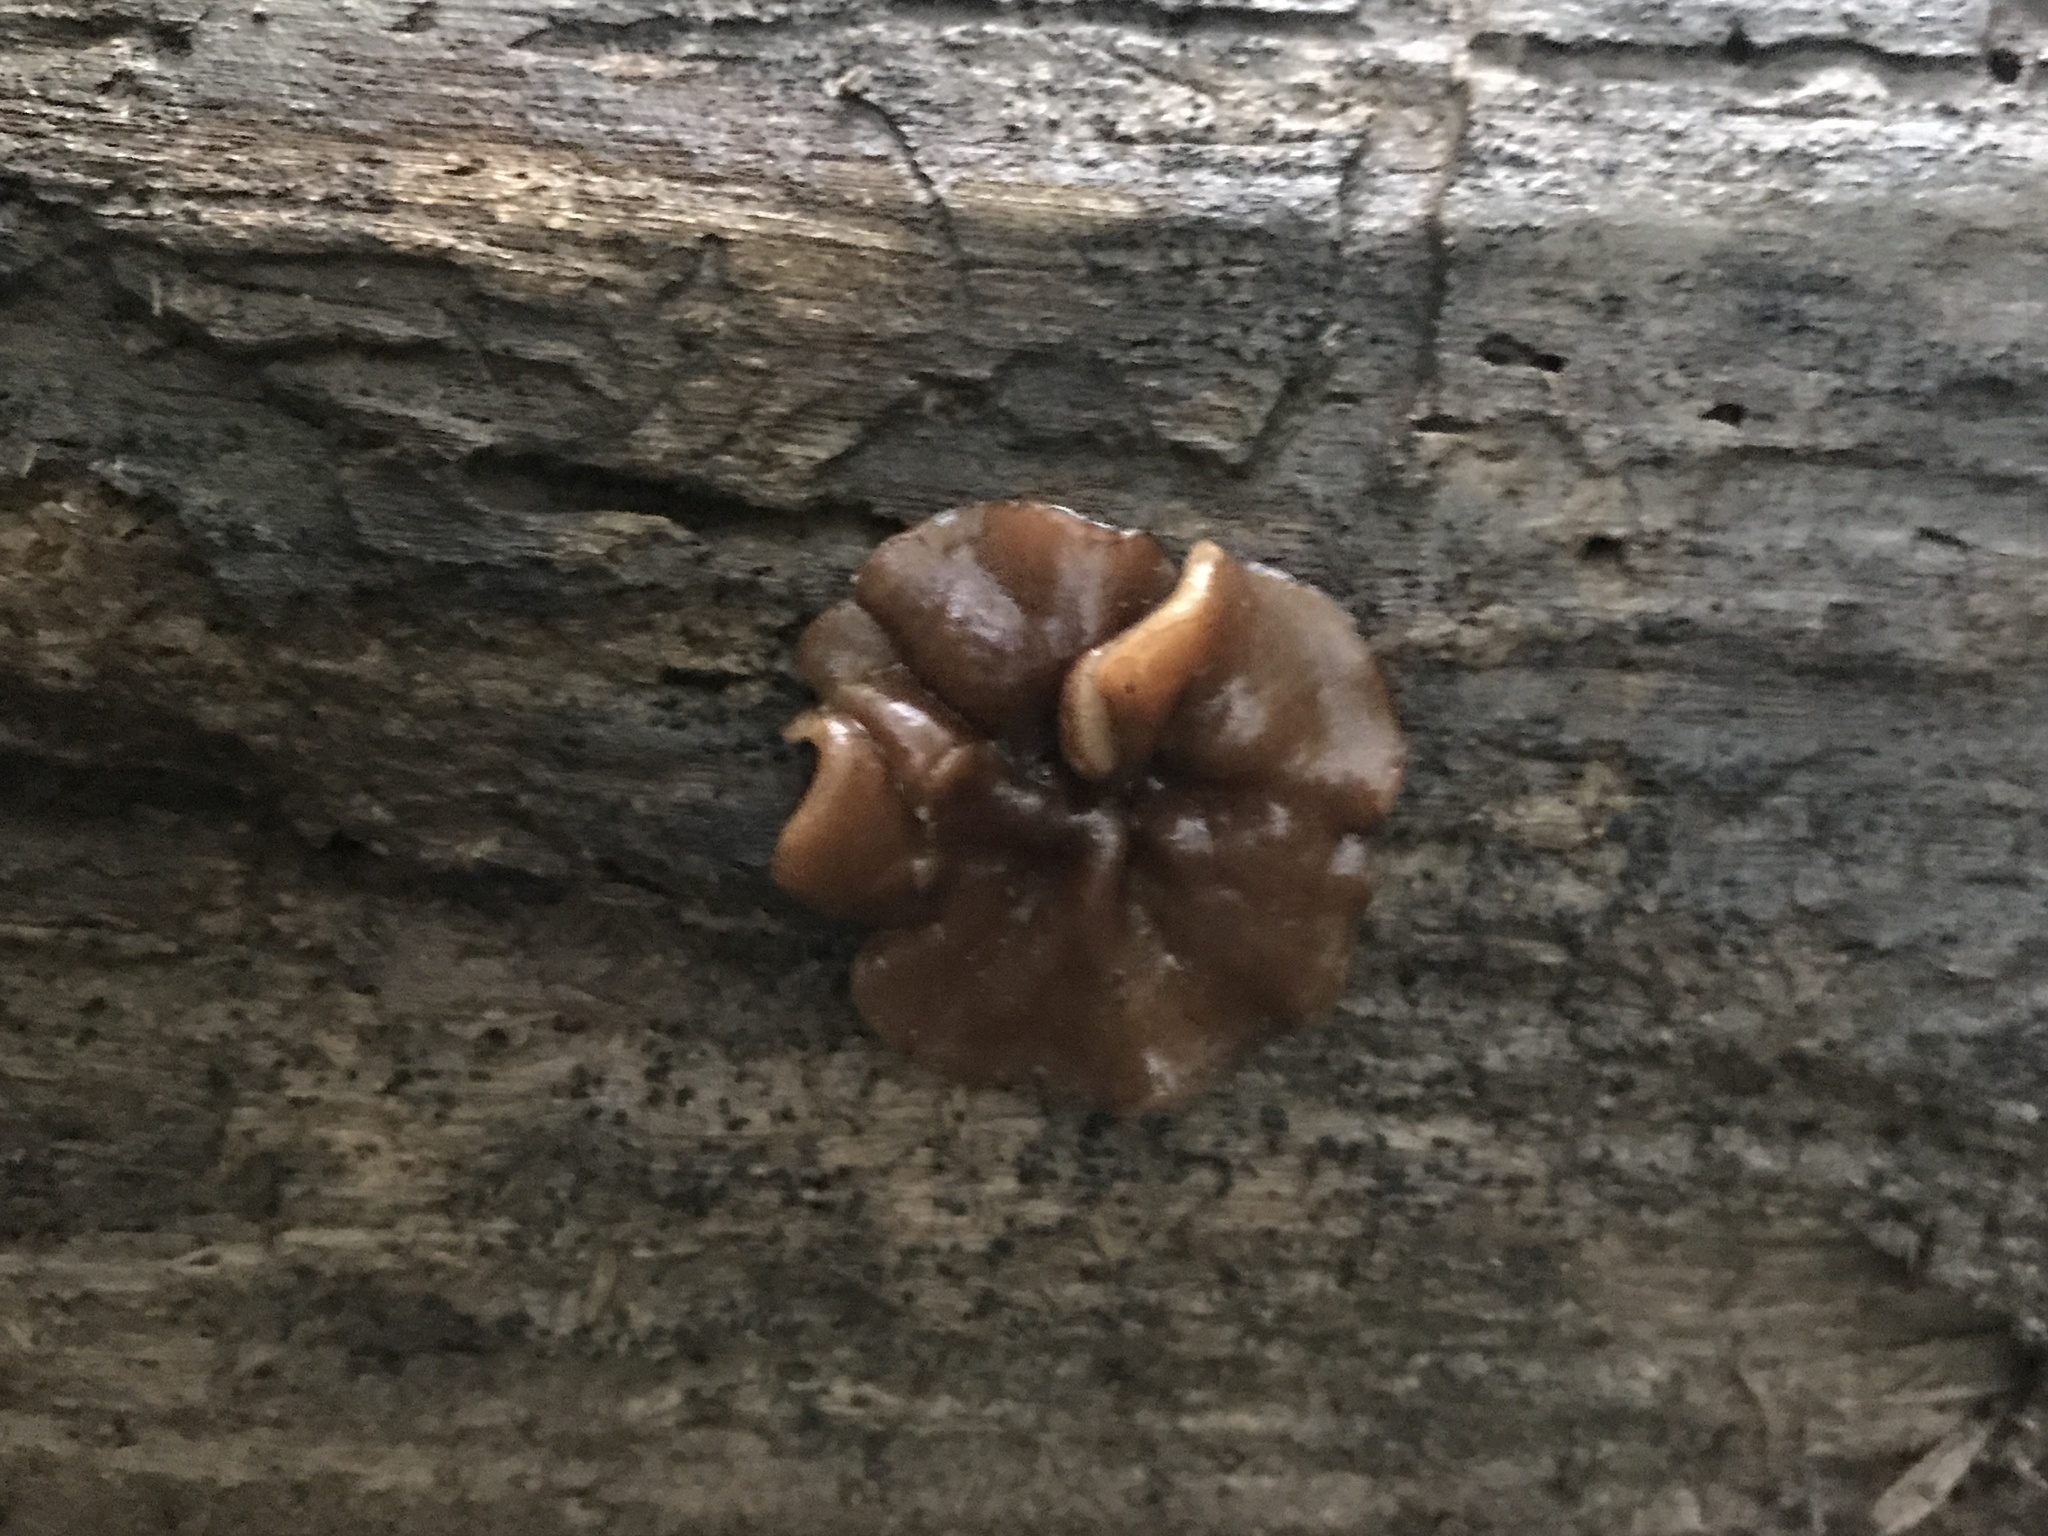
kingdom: Fungi
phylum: Ascomycota
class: Pezizomycetes
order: Pezizales
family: Pezizaceae
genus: Pachyella
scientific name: Pachyella clypeata
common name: Copper penny fungus
